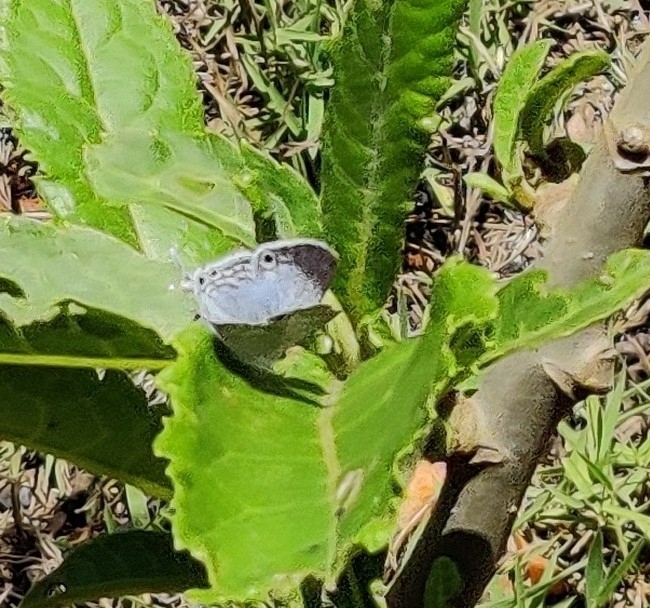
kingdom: Animalia
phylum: Arthropoda
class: Insecta
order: Lepidoptera
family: Lycaenidae
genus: Leptomyrina
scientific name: Leptomyrina phidias
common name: Madagascar black-eye
